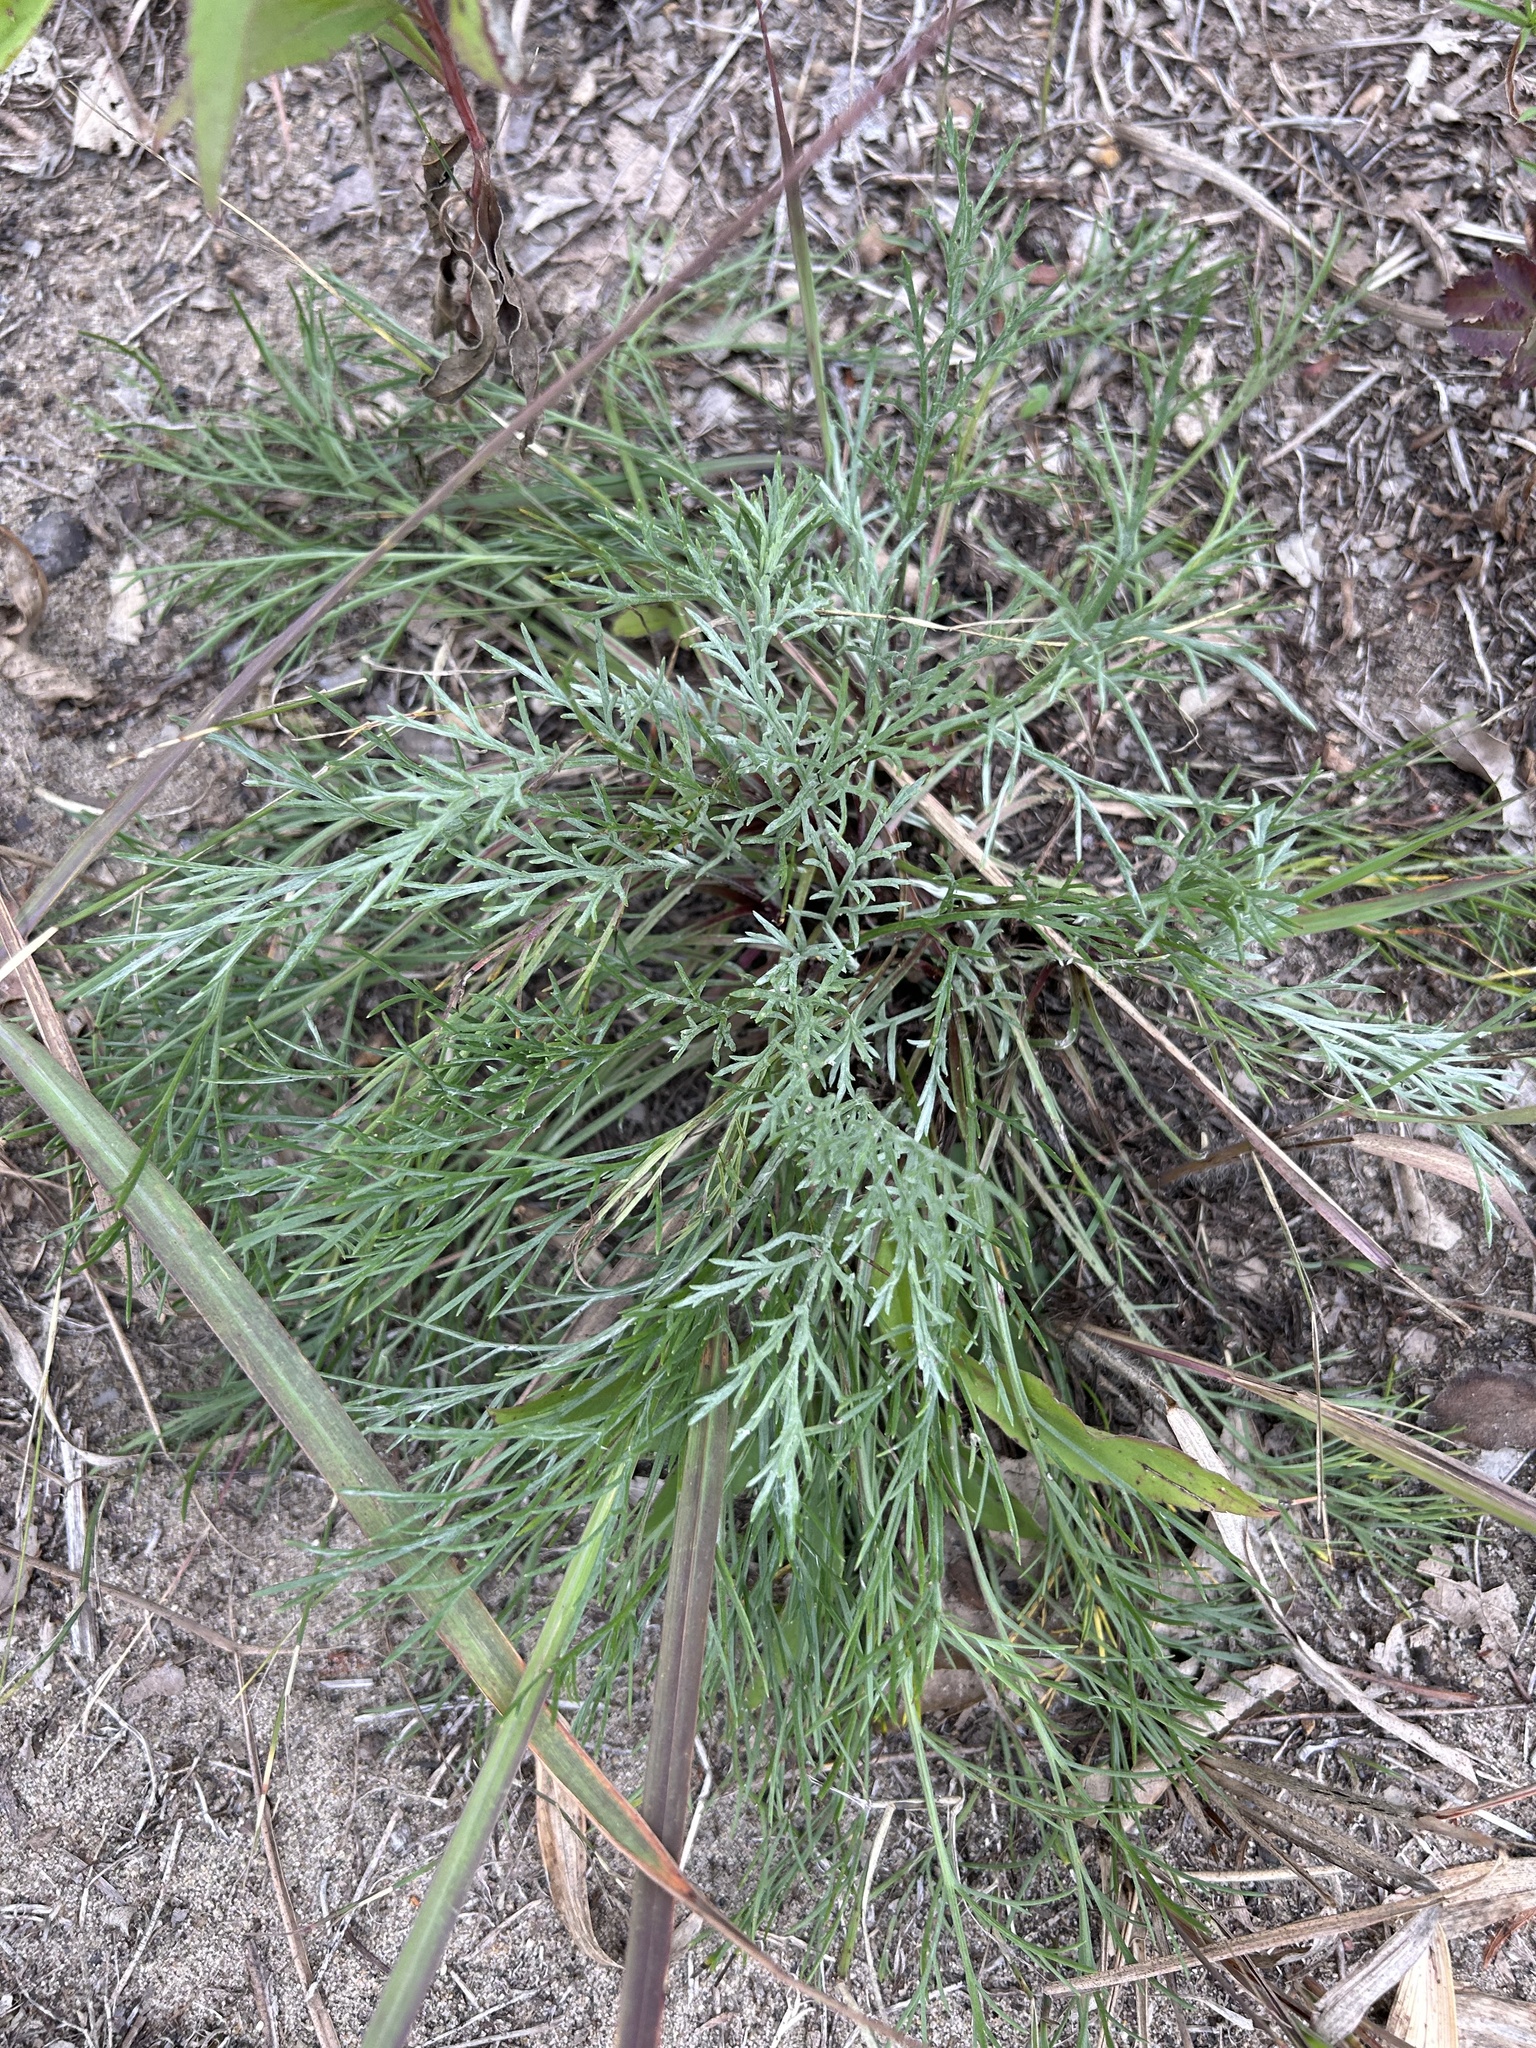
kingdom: Plantae
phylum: Tracheophyta
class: Magnoliopsida
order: Asterales
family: Asteraceae
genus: Artemisia
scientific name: Artemisia campestris
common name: Field wormwood
